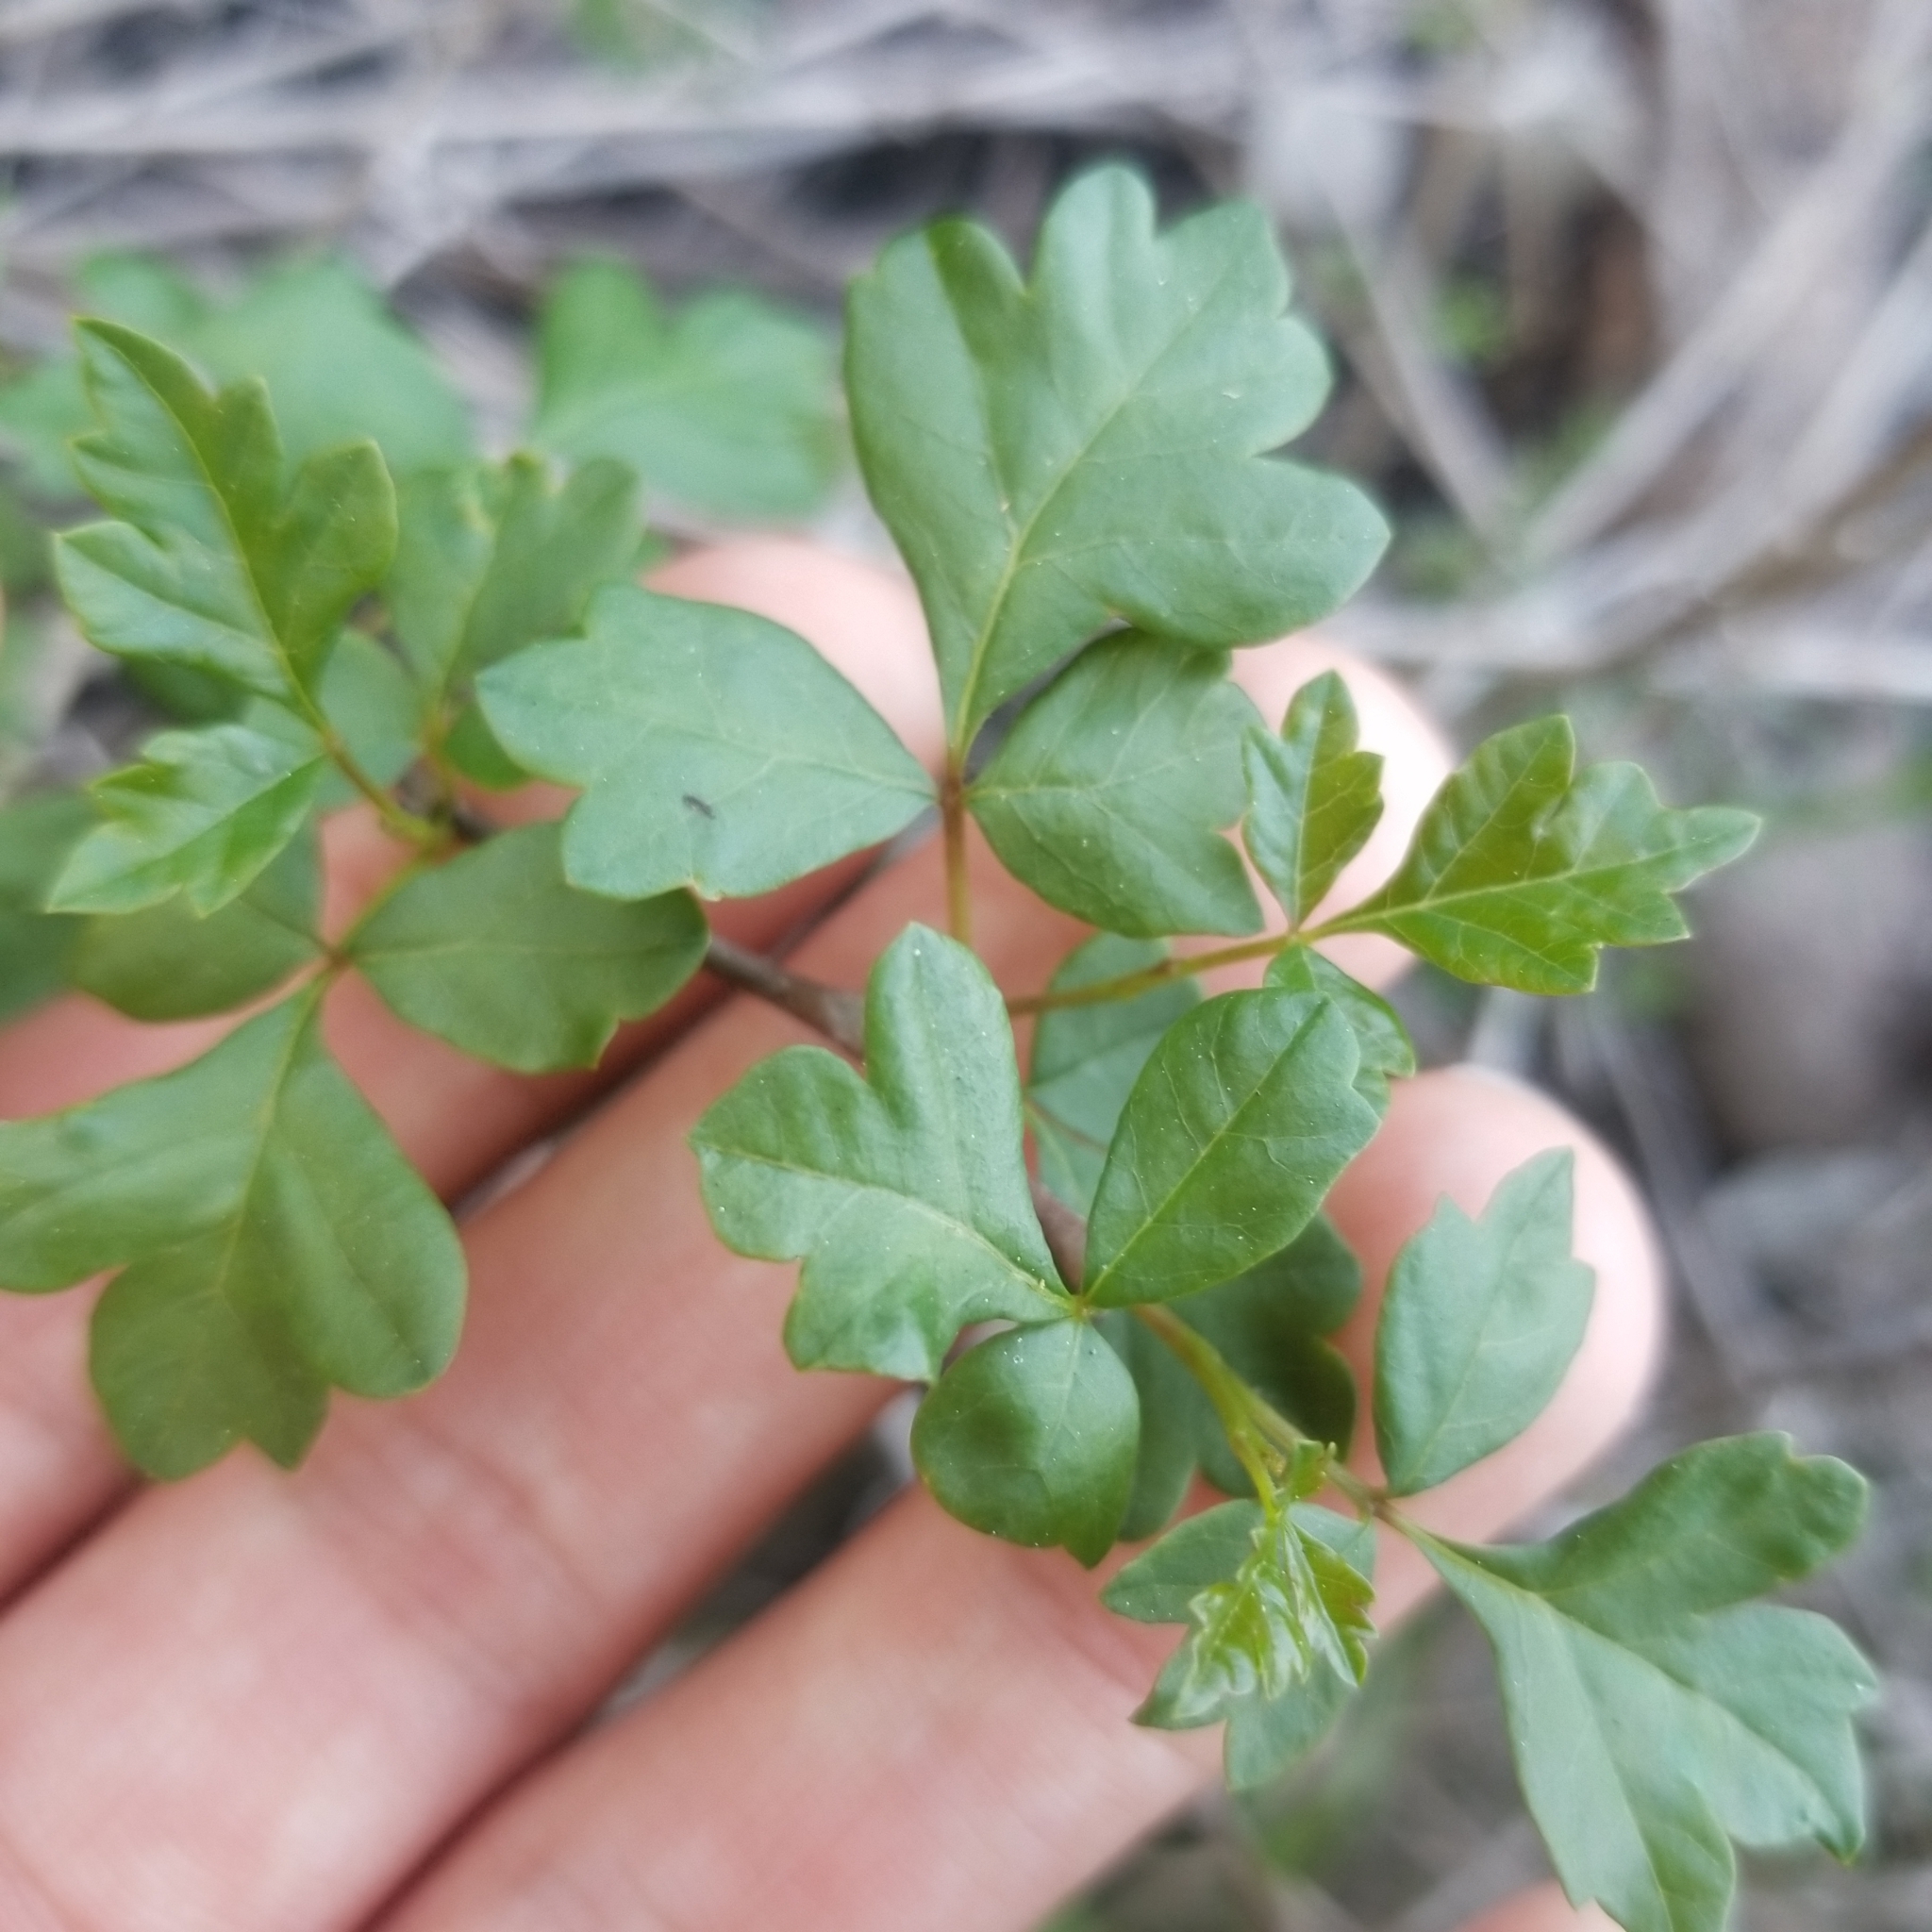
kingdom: Plantae
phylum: Tracheophyta
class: Magnoliopsida
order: Sapindales
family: Anacardiaceae
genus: Rhus
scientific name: Rhus aromatica
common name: Aromatic sumac
